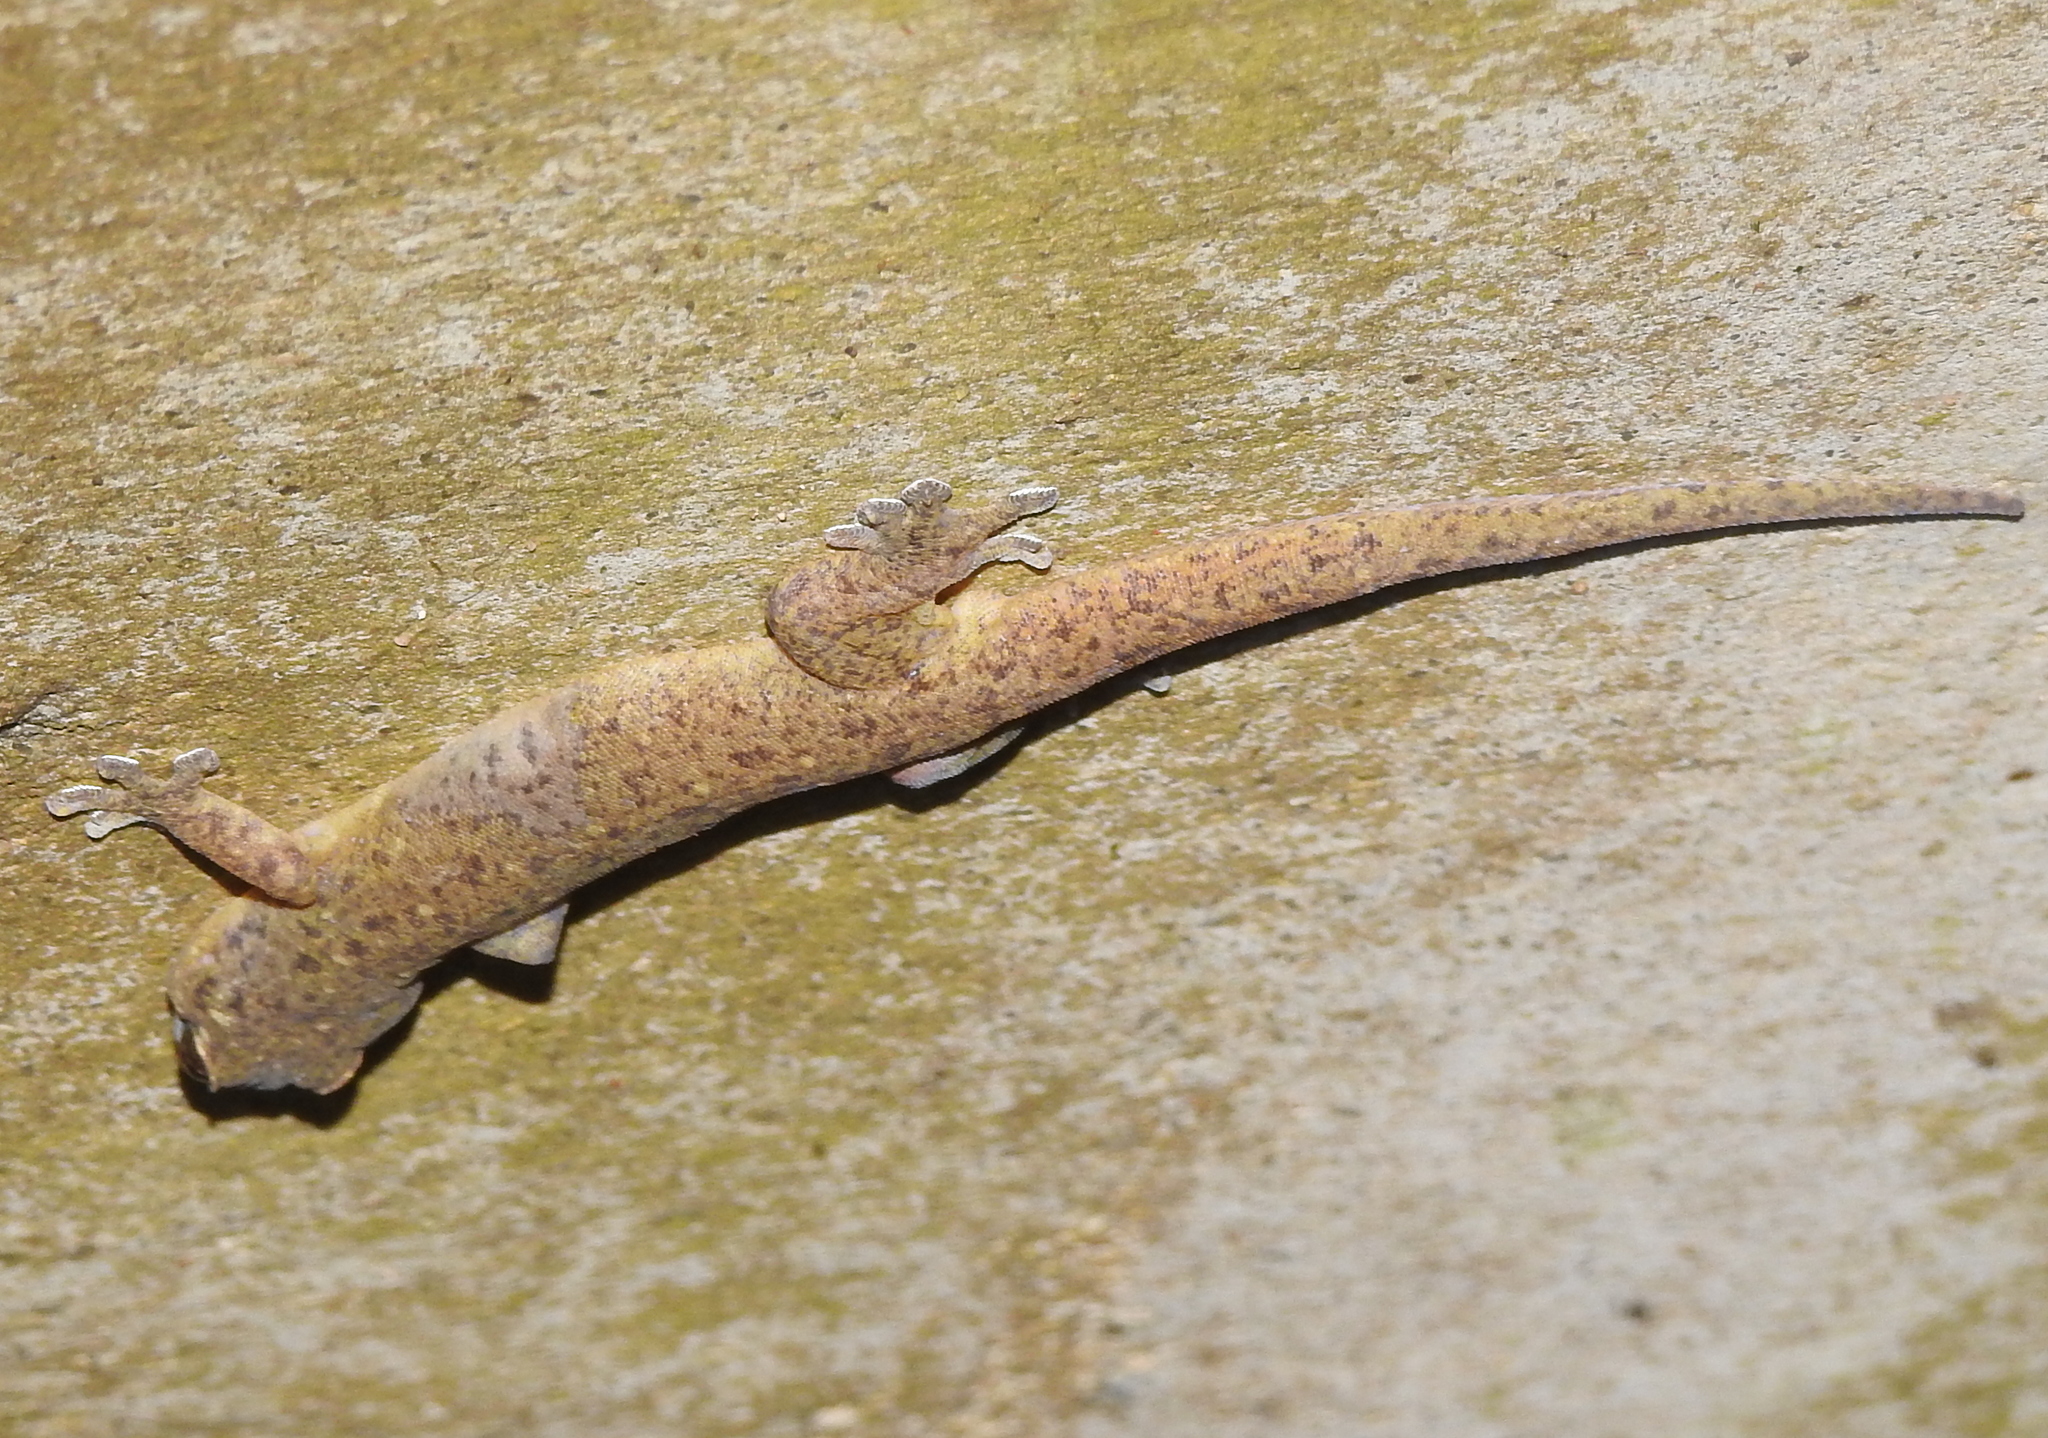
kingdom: Animalia
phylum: Chordata
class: Squamata
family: Gekkonidae
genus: Gehyra
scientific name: Gehyra mutilata
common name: Stump-toed gecko
